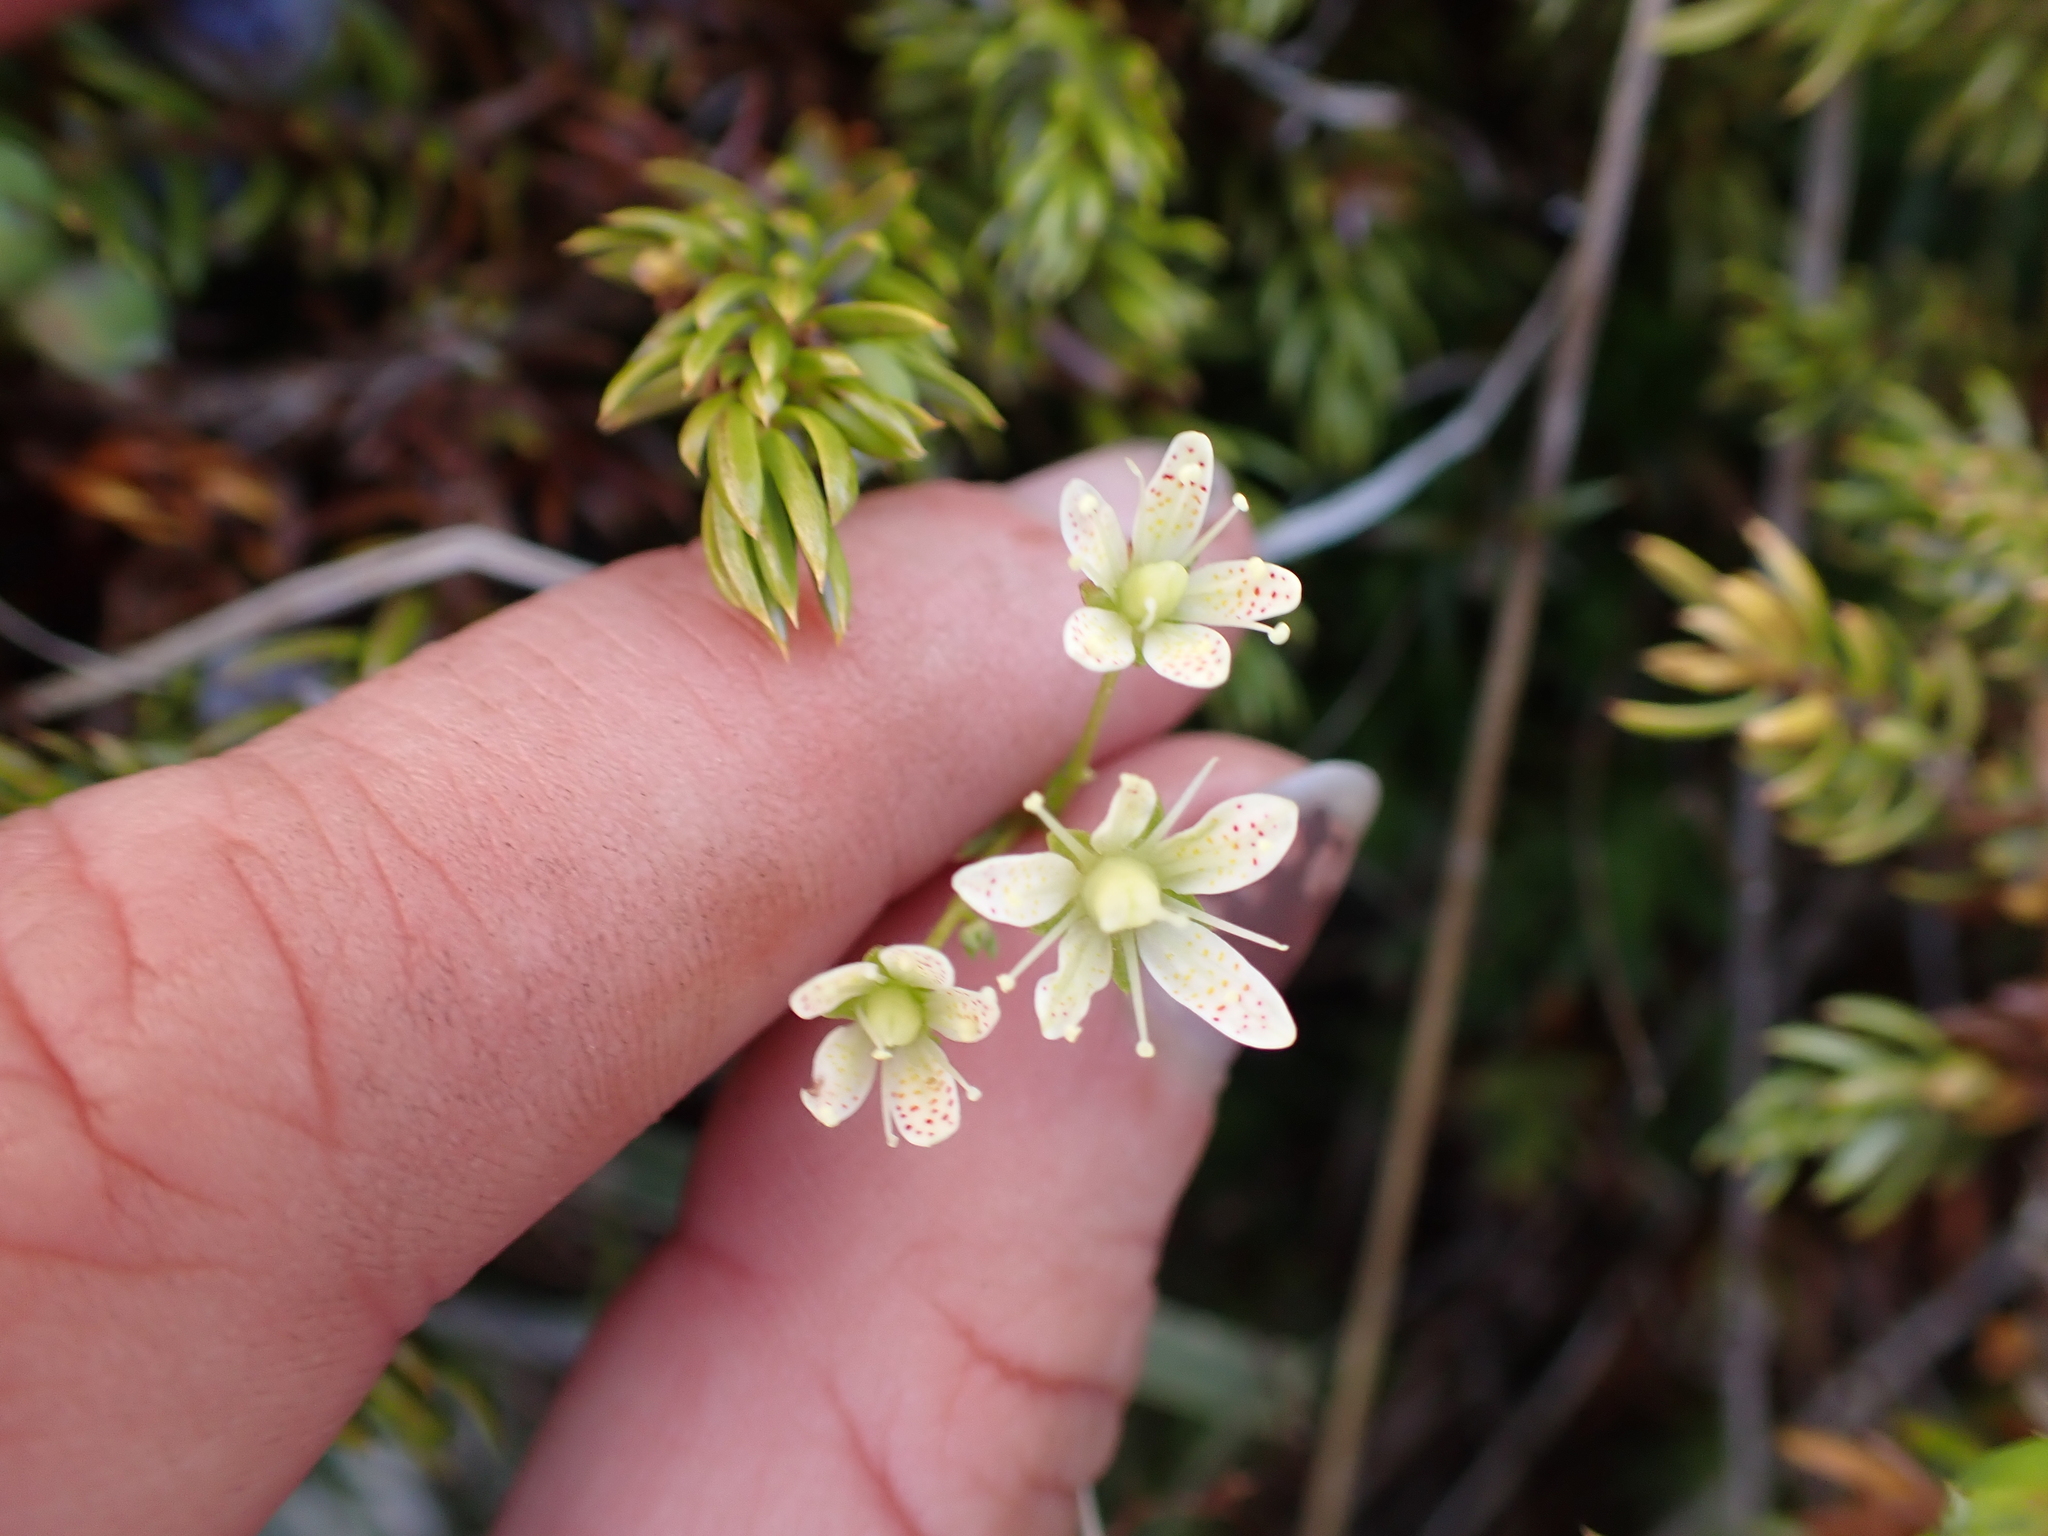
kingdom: Plantae
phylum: Tracheophyta
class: Magnoliopsida
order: Saxifragales
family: Saxifragaceae
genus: Saxifraga
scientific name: Saxifraga bronchialis
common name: Matted saxifrage
